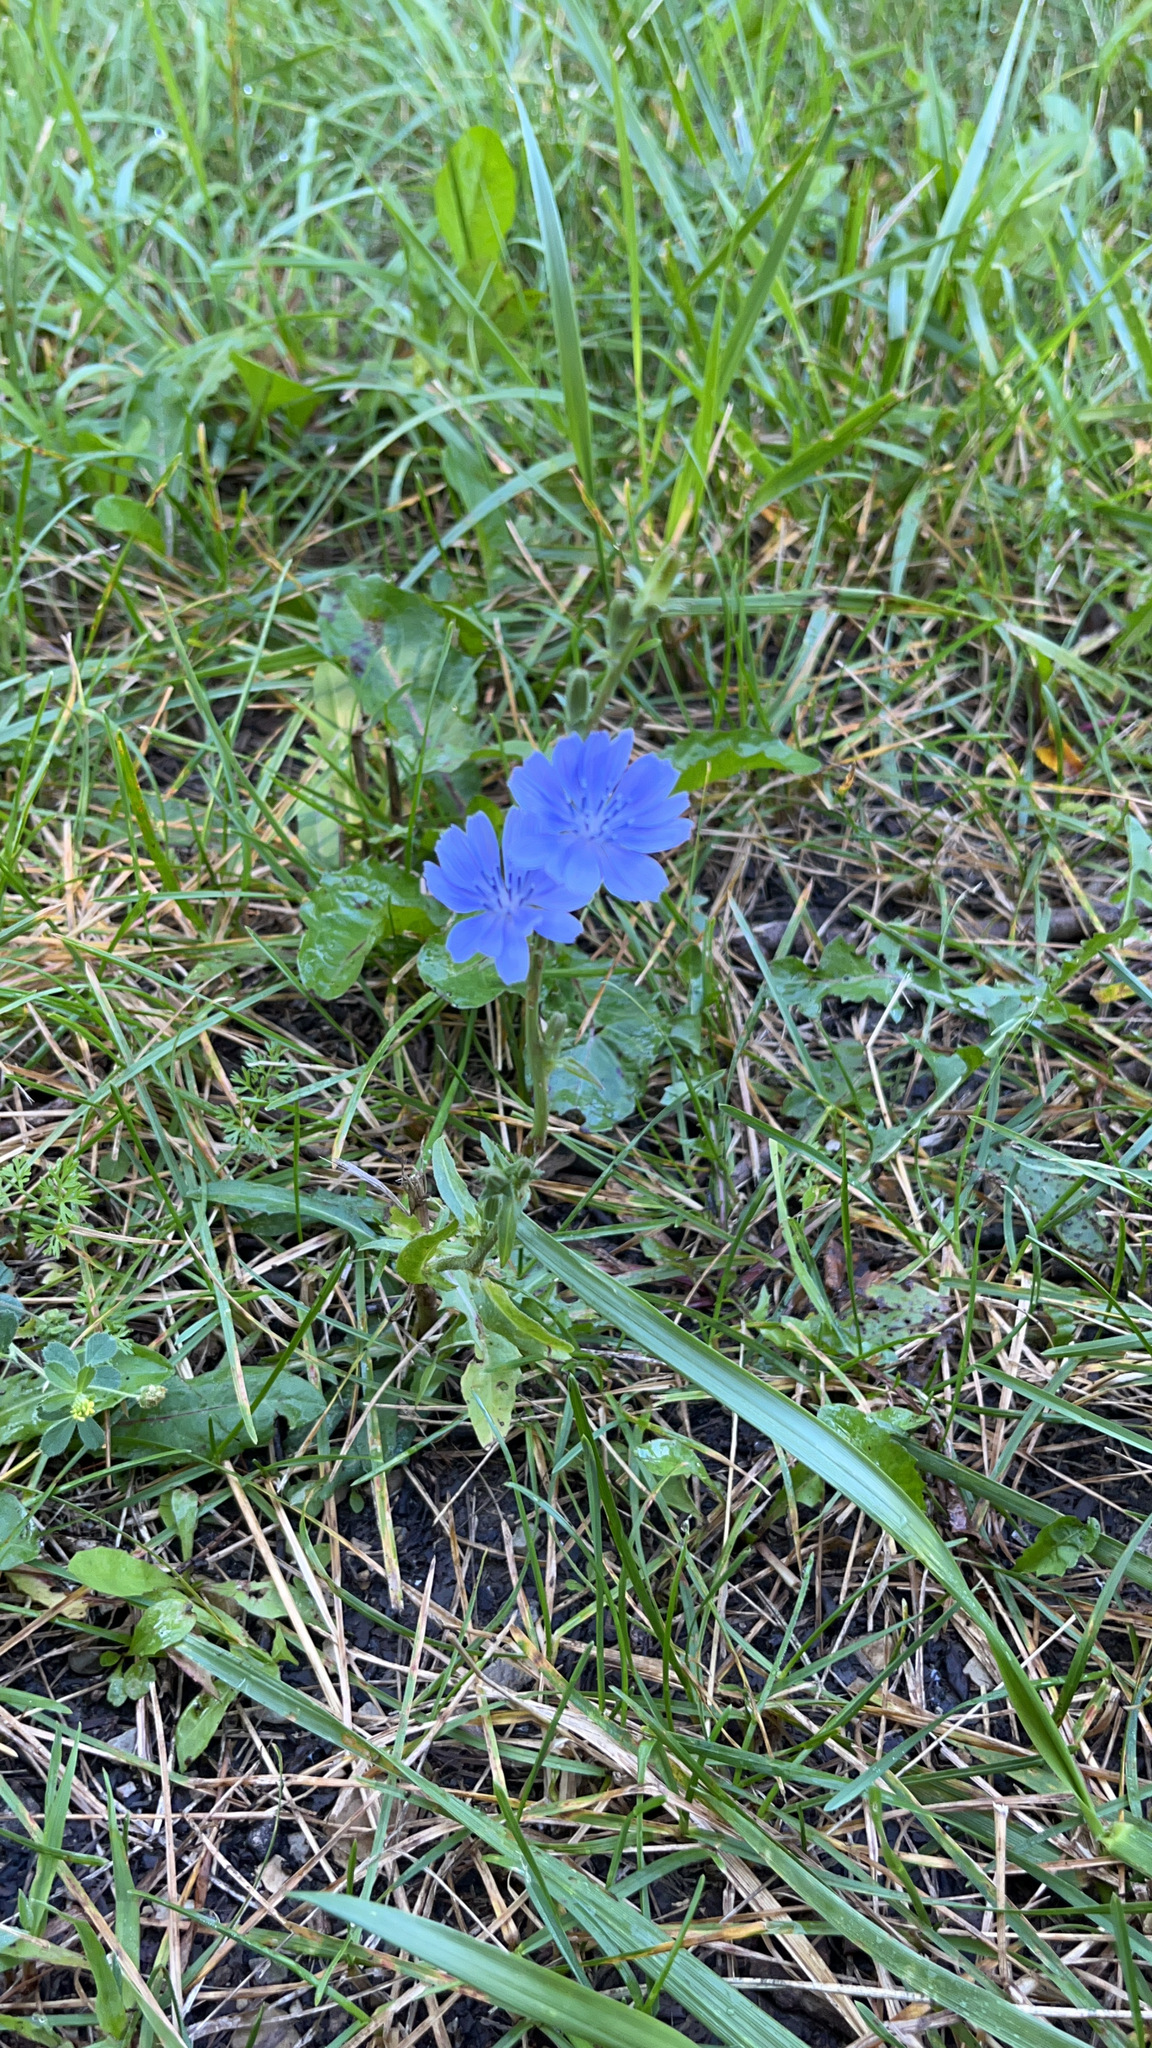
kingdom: Plantae
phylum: Tracheophyta
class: Magnoliopsida
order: Asterales
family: Asteraceae
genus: Cichorium
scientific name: Cichorium intybus
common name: Chicory
